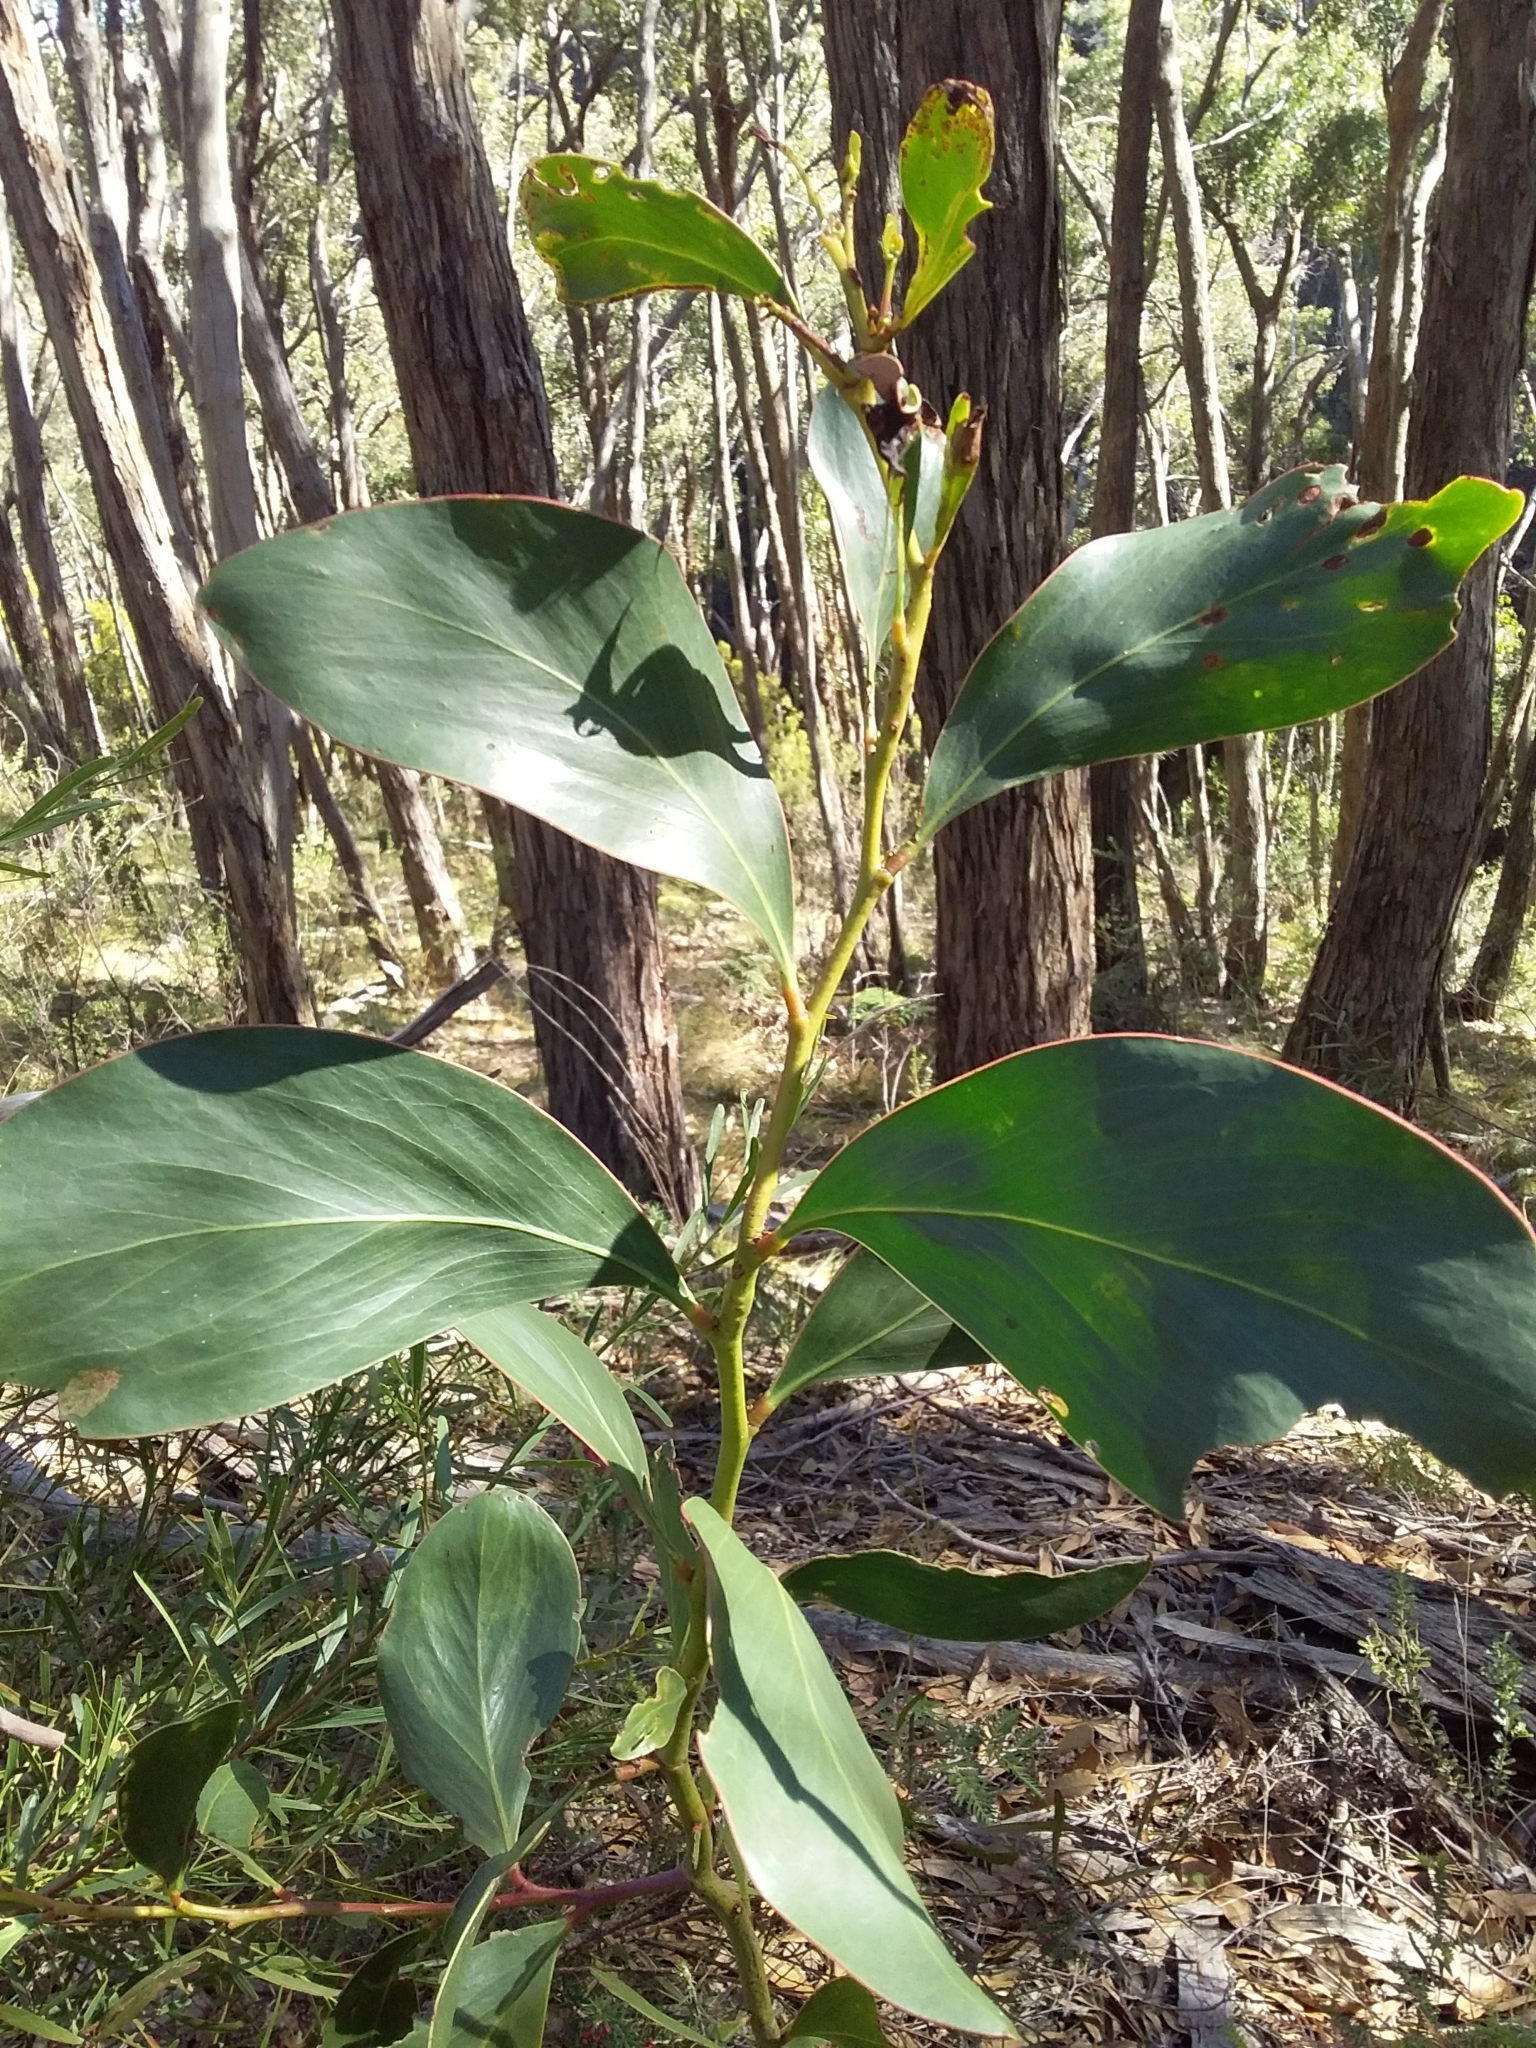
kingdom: Plantae
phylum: Tracheophyta
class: Magnoliopsida
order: Fabales
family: Fabaceae
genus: Acacia
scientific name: Acacia pycnantha
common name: Golden wattle
